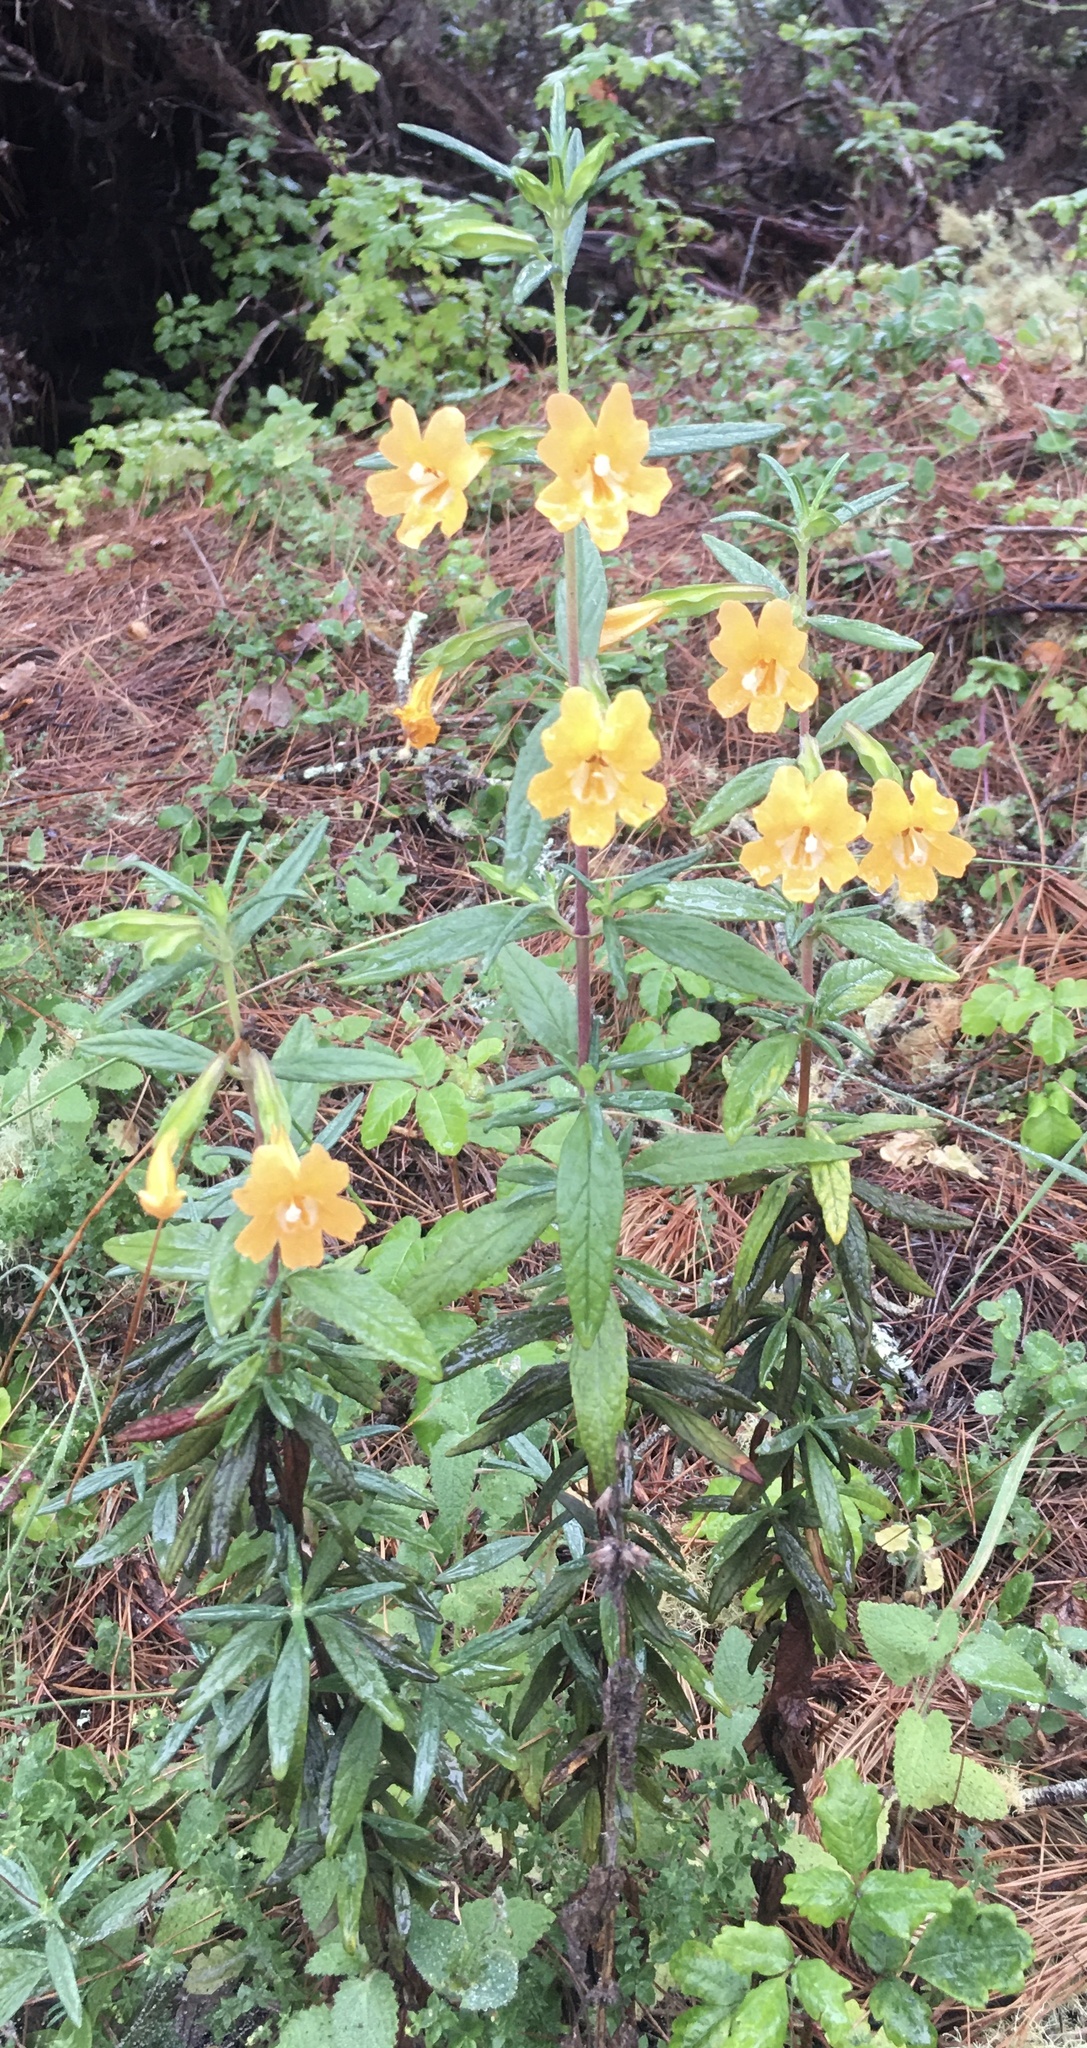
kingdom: Plantae
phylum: Tracheophyta
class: Magnoliopsida
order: Lamiales
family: Phrymaceae
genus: Diplacus
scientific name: Diplacus aurantiacus
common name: Bush monkey-flower
